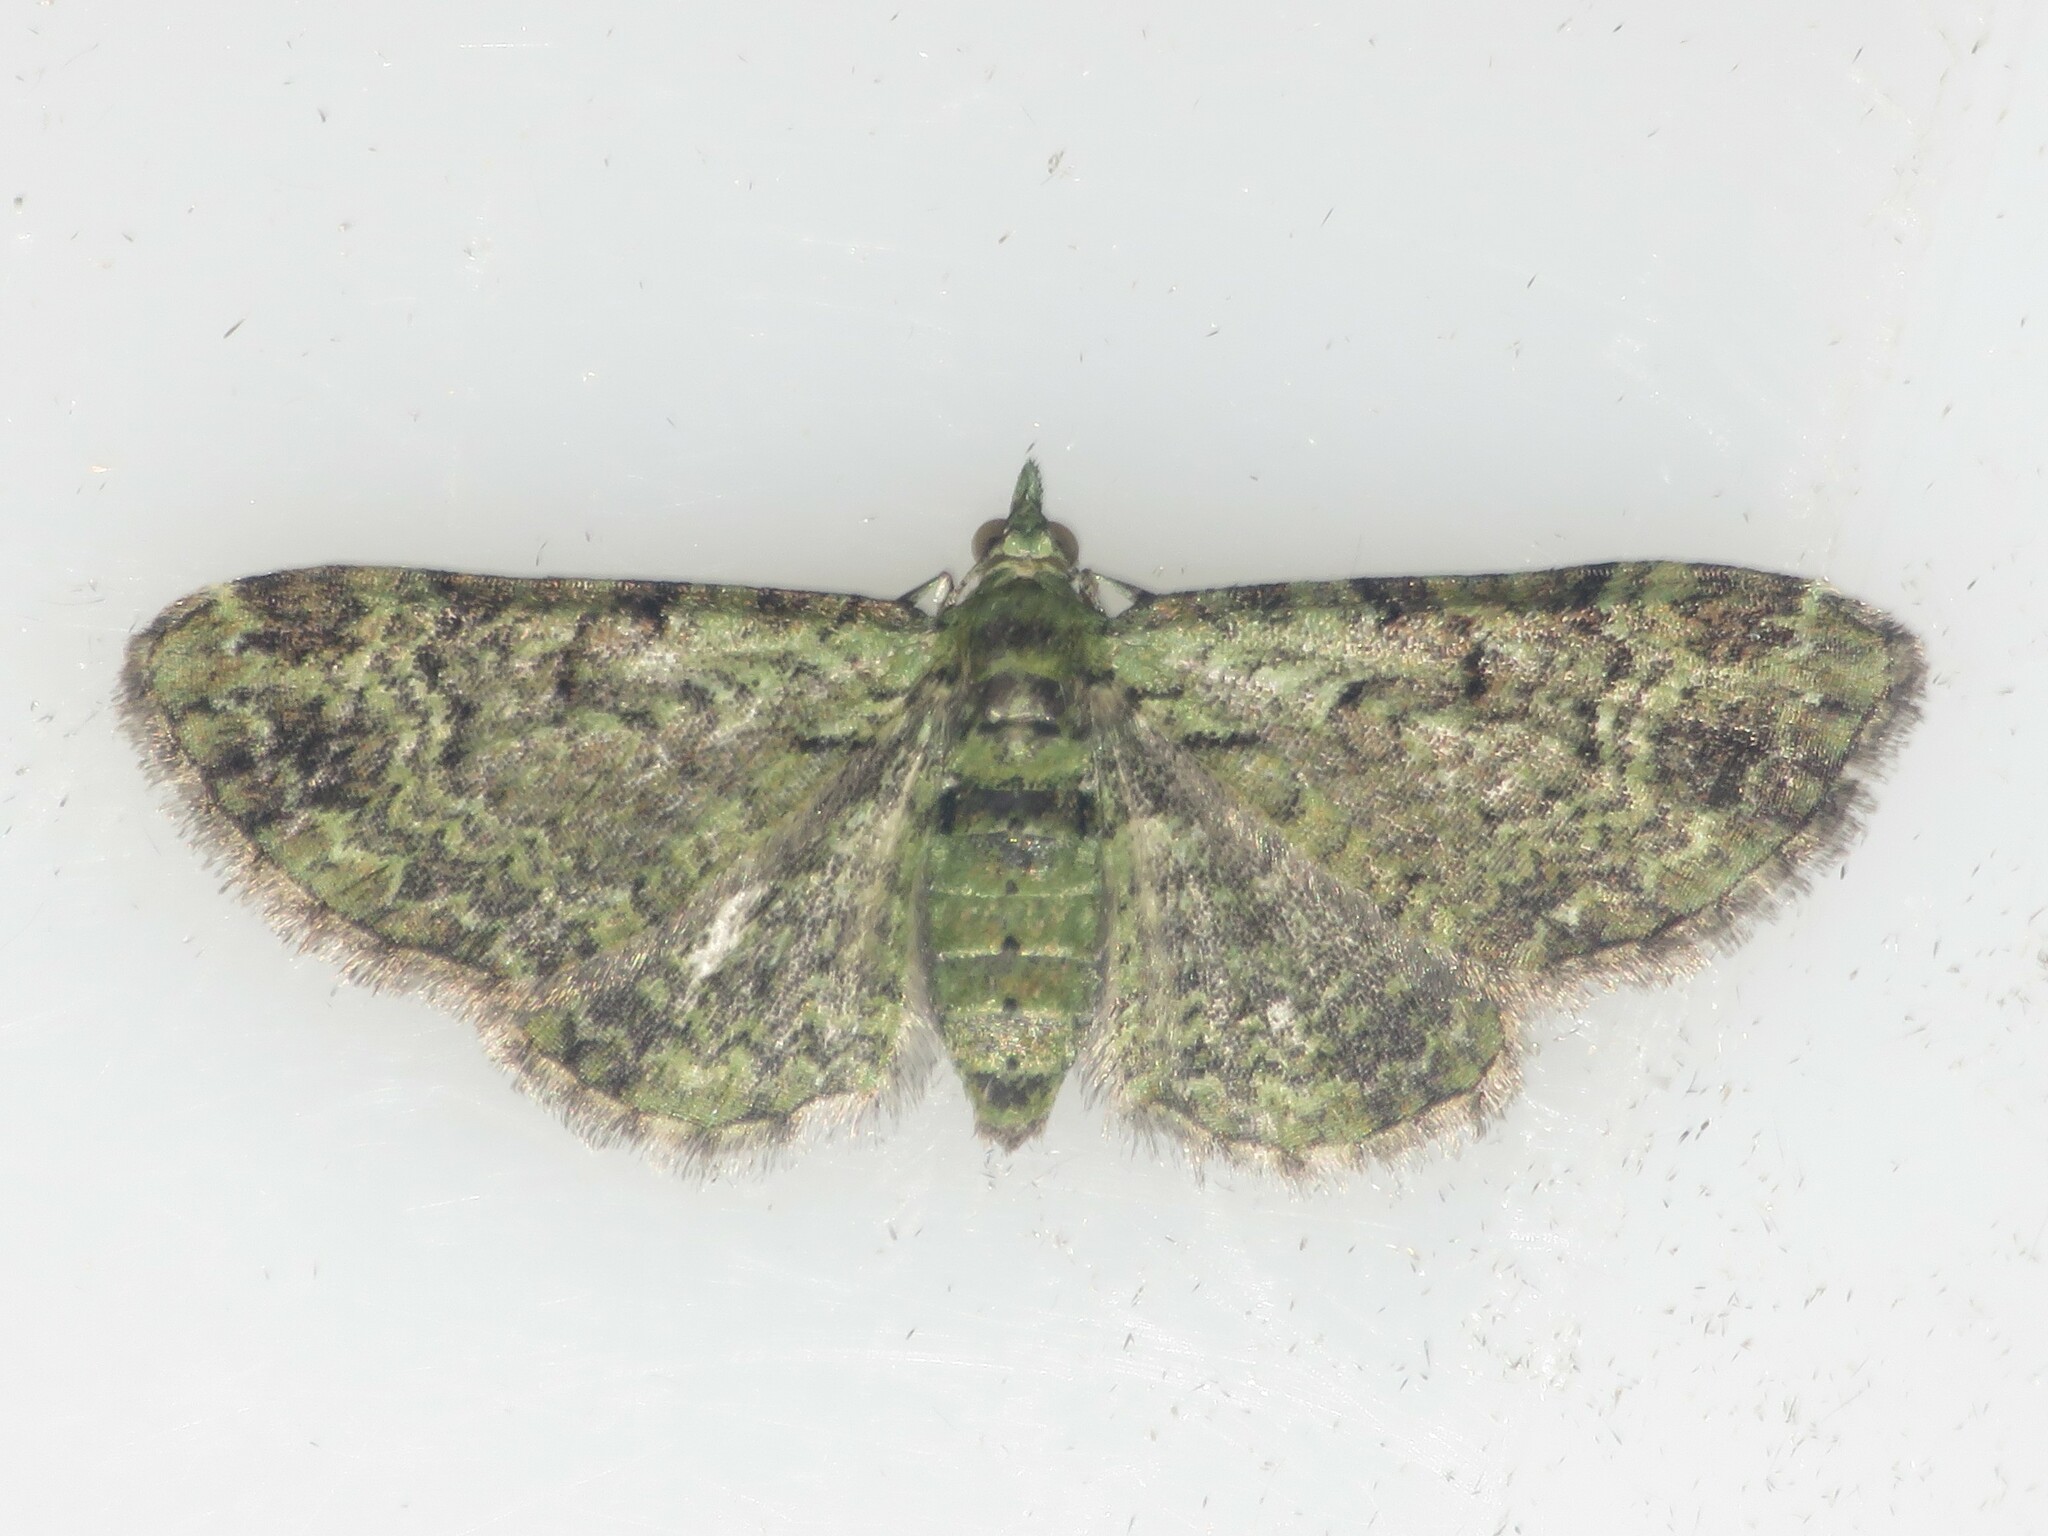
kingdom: Animalia
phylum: Arthropoda
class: Insecta
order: Lepidoptera
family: Geometridae
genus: Pasiphila
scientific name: Pasiphila rectangulata
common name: Green pug
